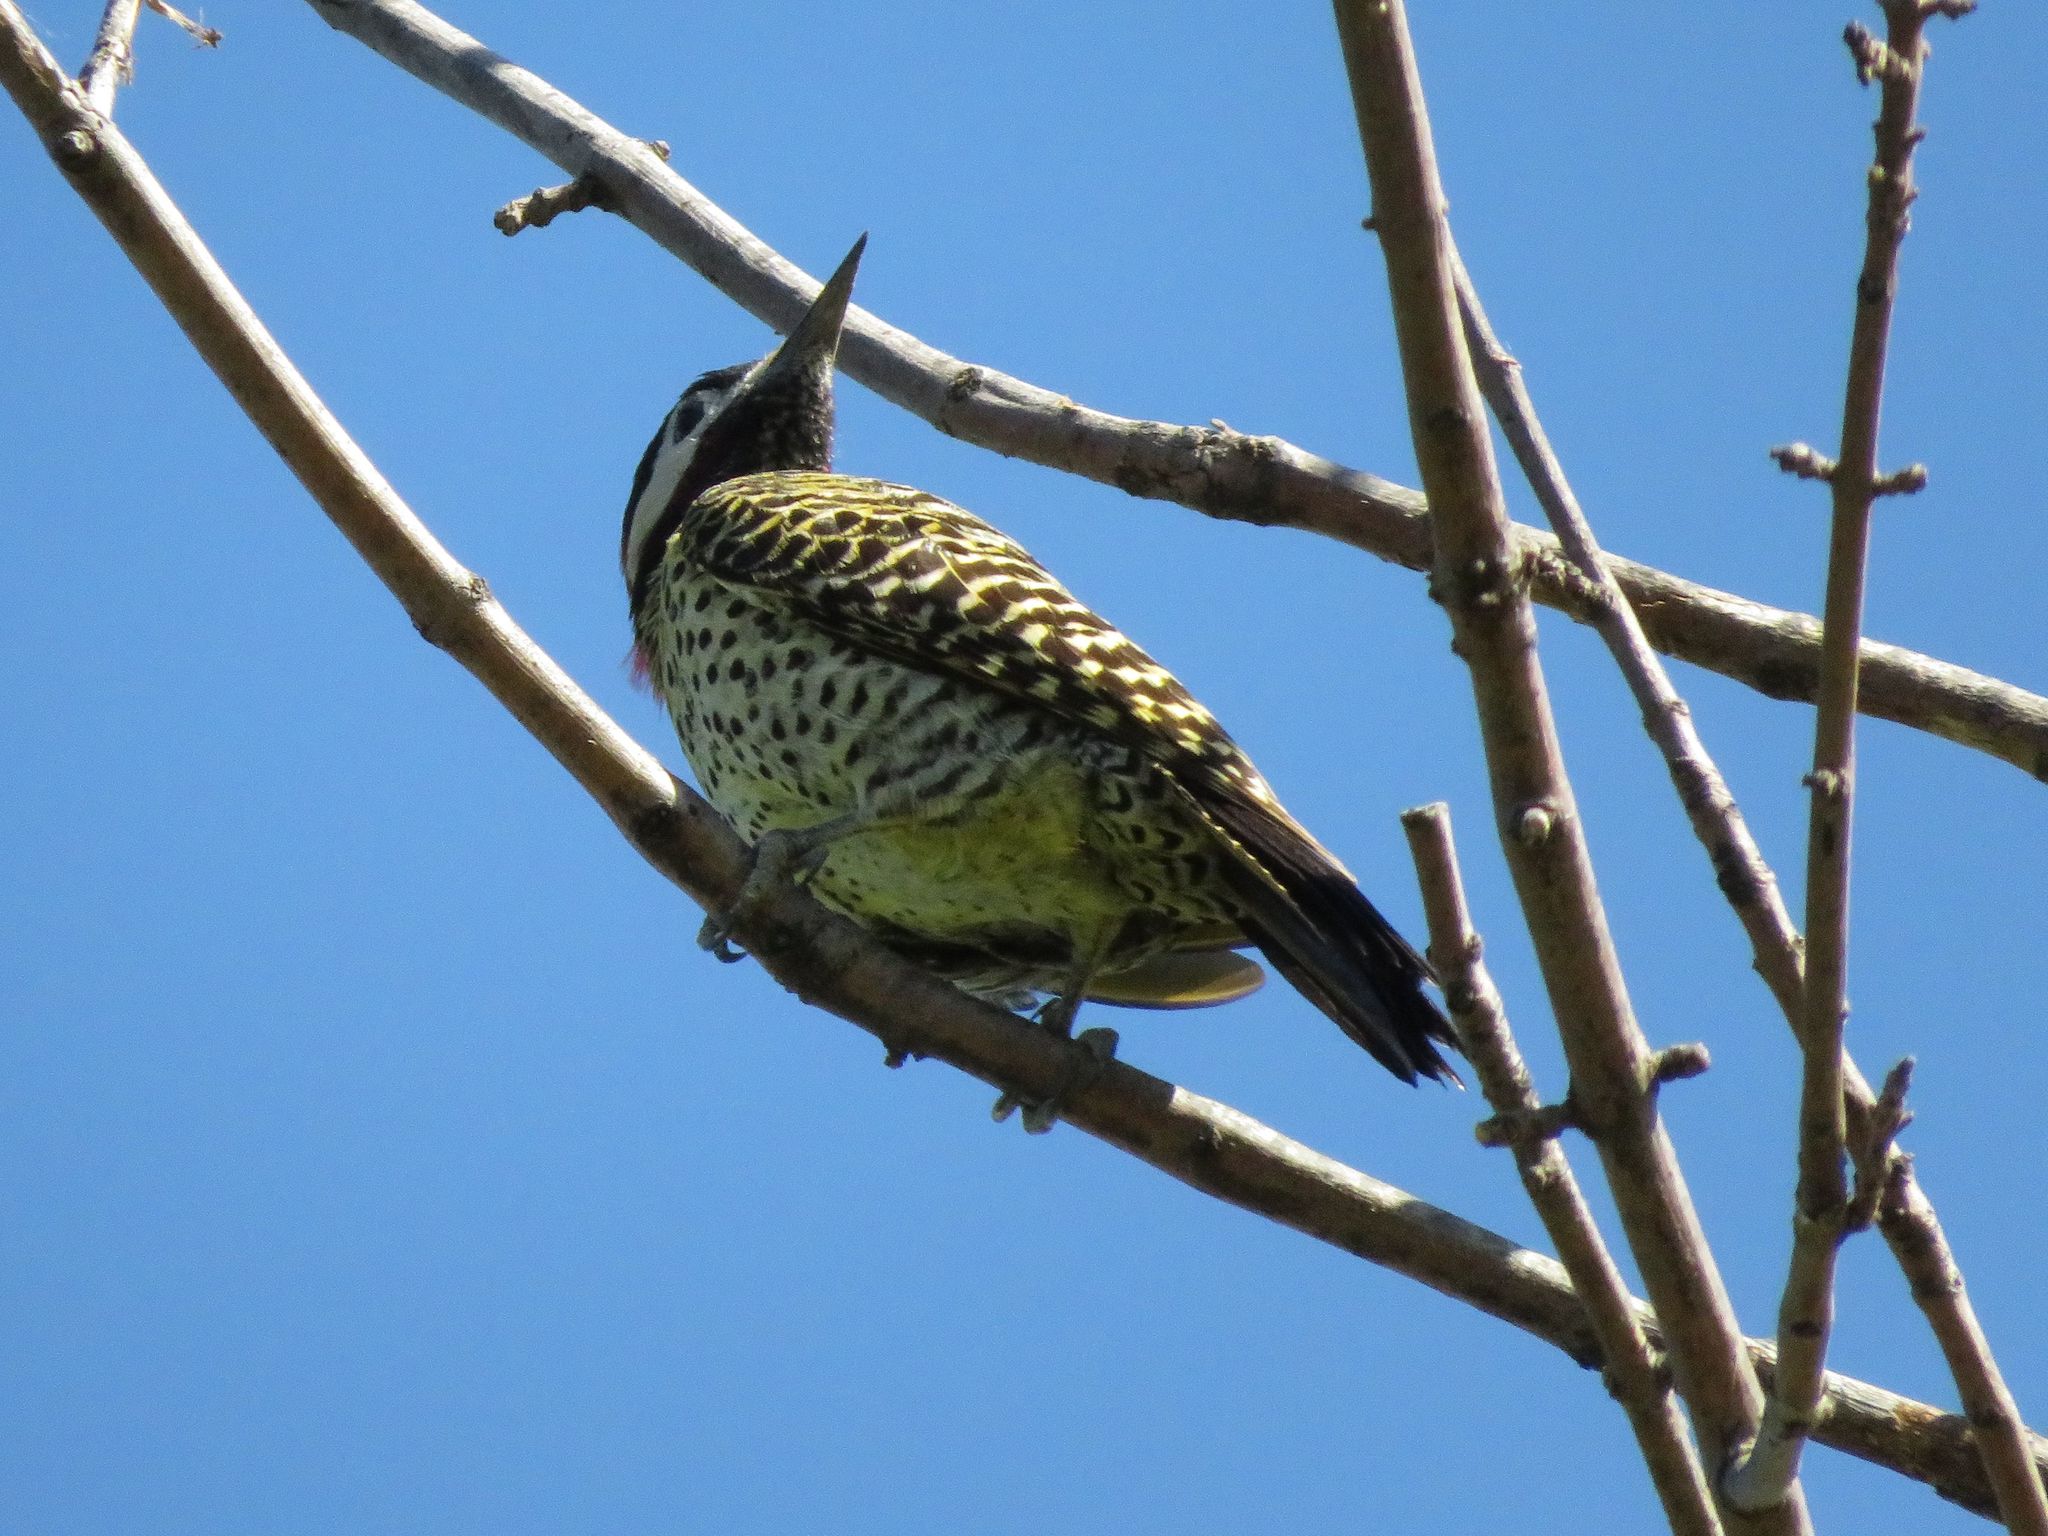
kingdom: Animalia
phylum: Chordata
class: Aves
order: Piciformes
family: Picidae
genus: Colaptes
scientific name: Colaptes melanochloros
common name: Green-barred woodpecker
